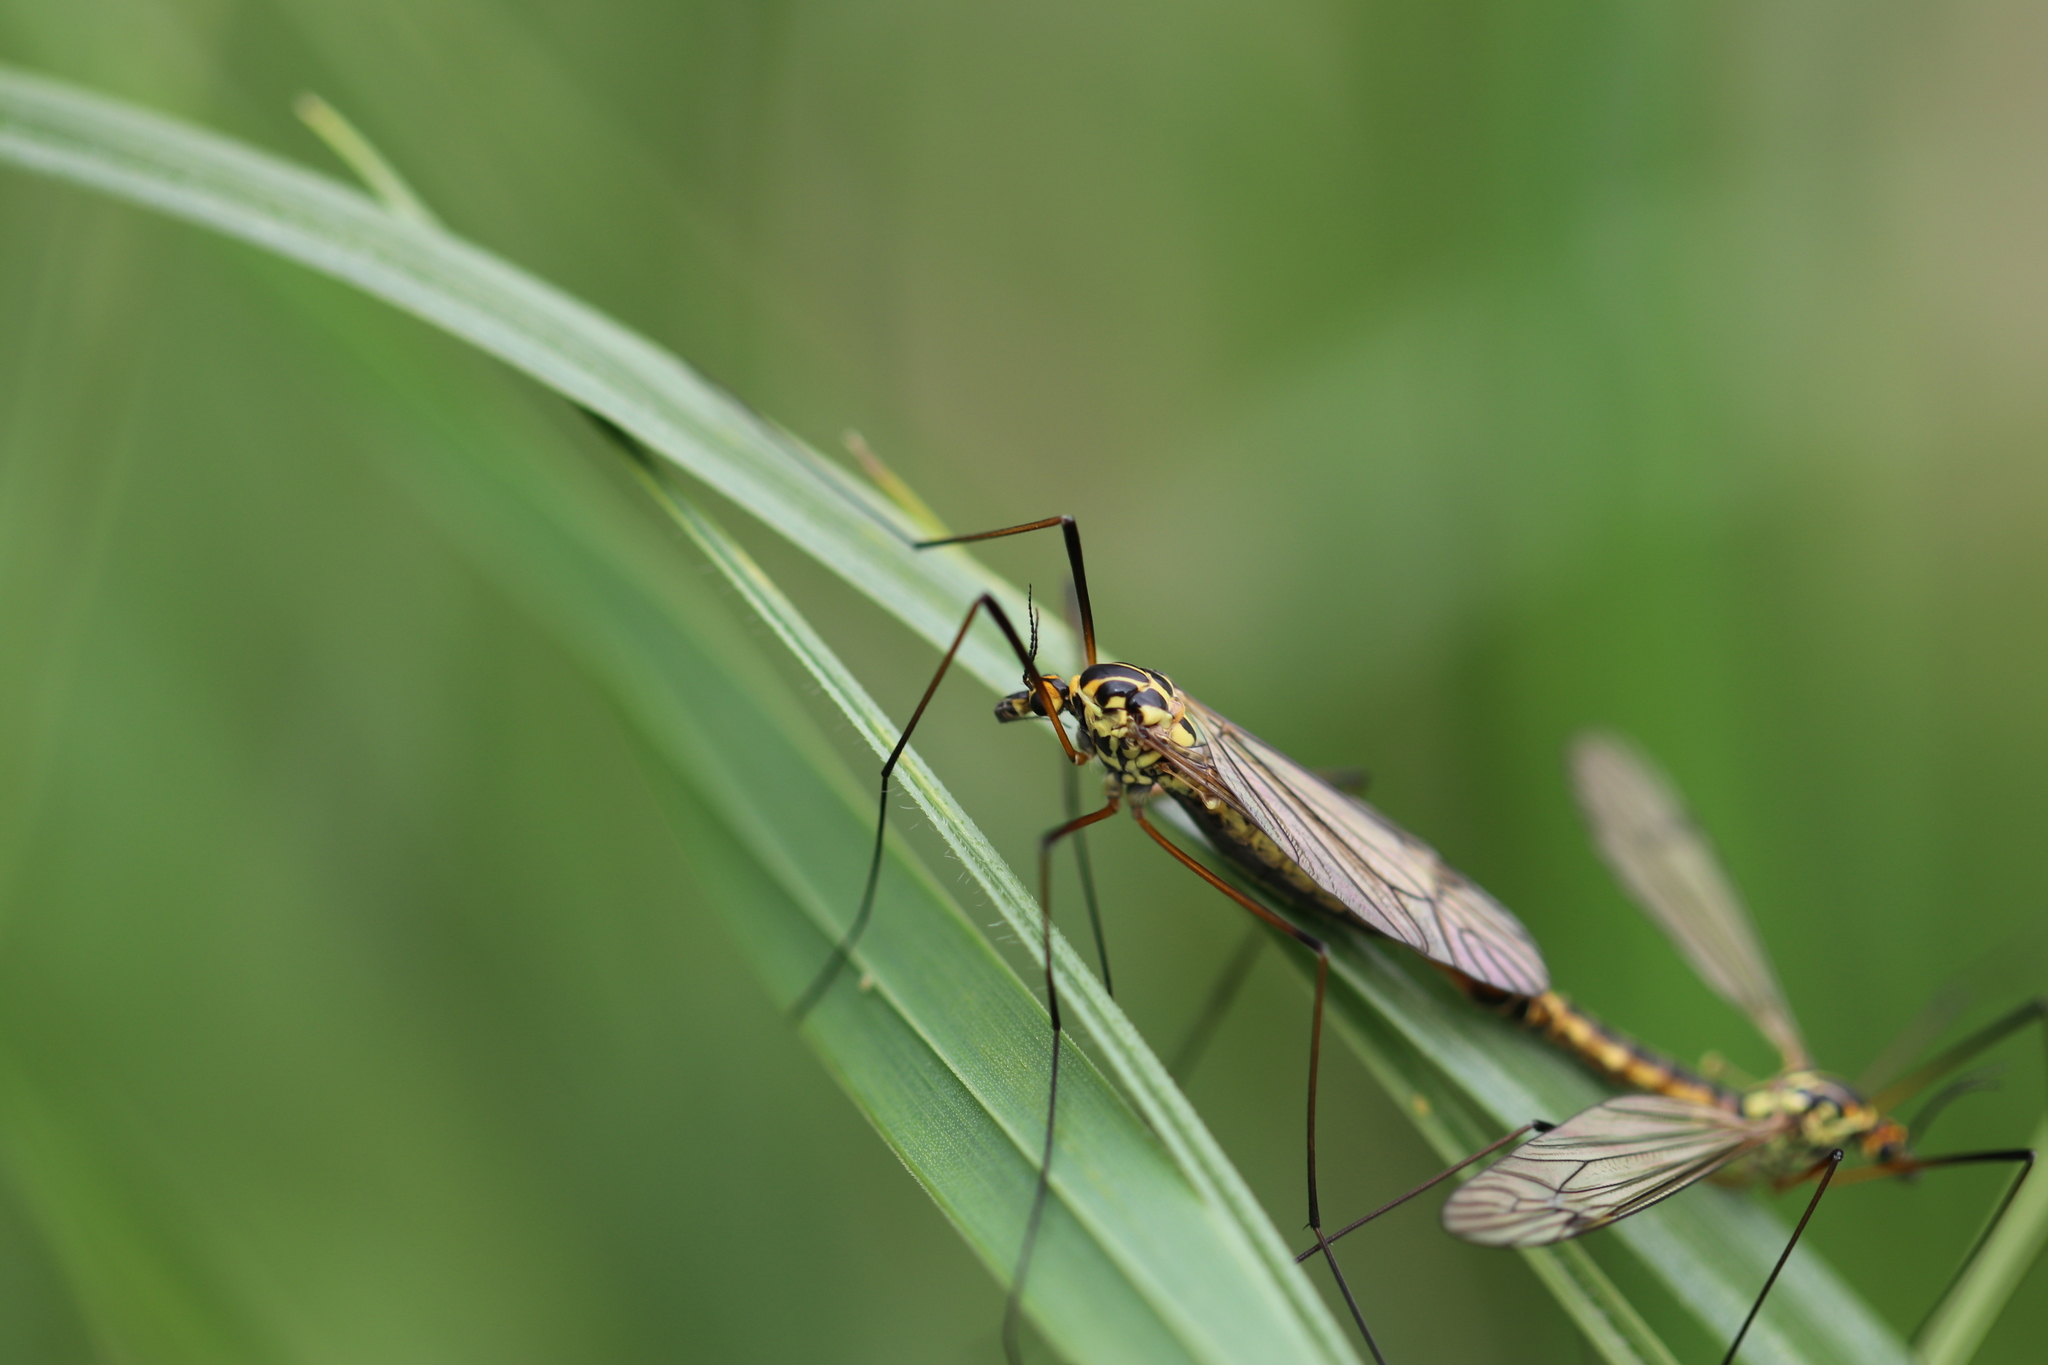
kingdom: Animalia
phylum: Arthropoda
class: Insecta
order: Diptera
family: Tipulidae
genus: Nephrotoma
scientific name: Nephrotoma appendiculata
